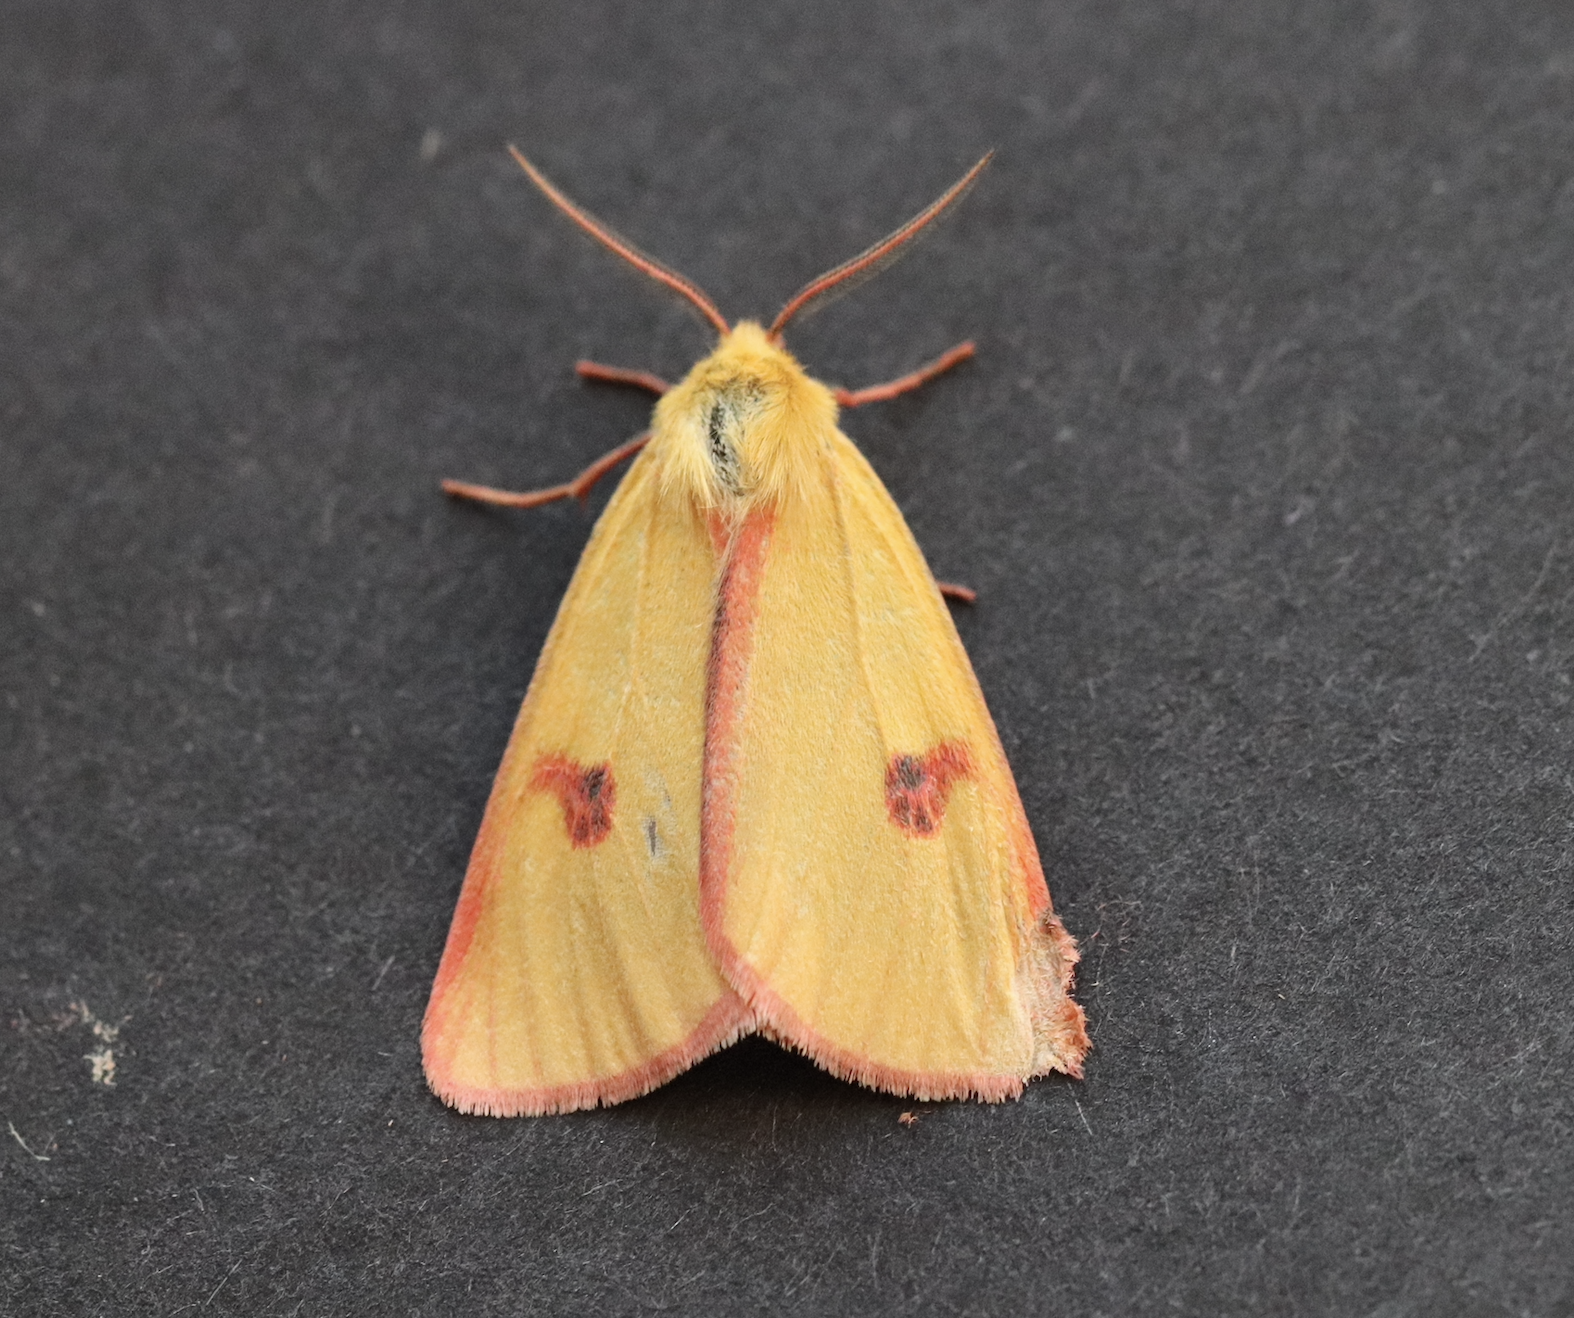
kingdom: Animalia
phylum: Arthropoda
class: Insecta
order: Lepidoptera
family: Erebidae
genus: Diacrisia
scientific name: Diacrisia sannio
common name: Clouded buff
